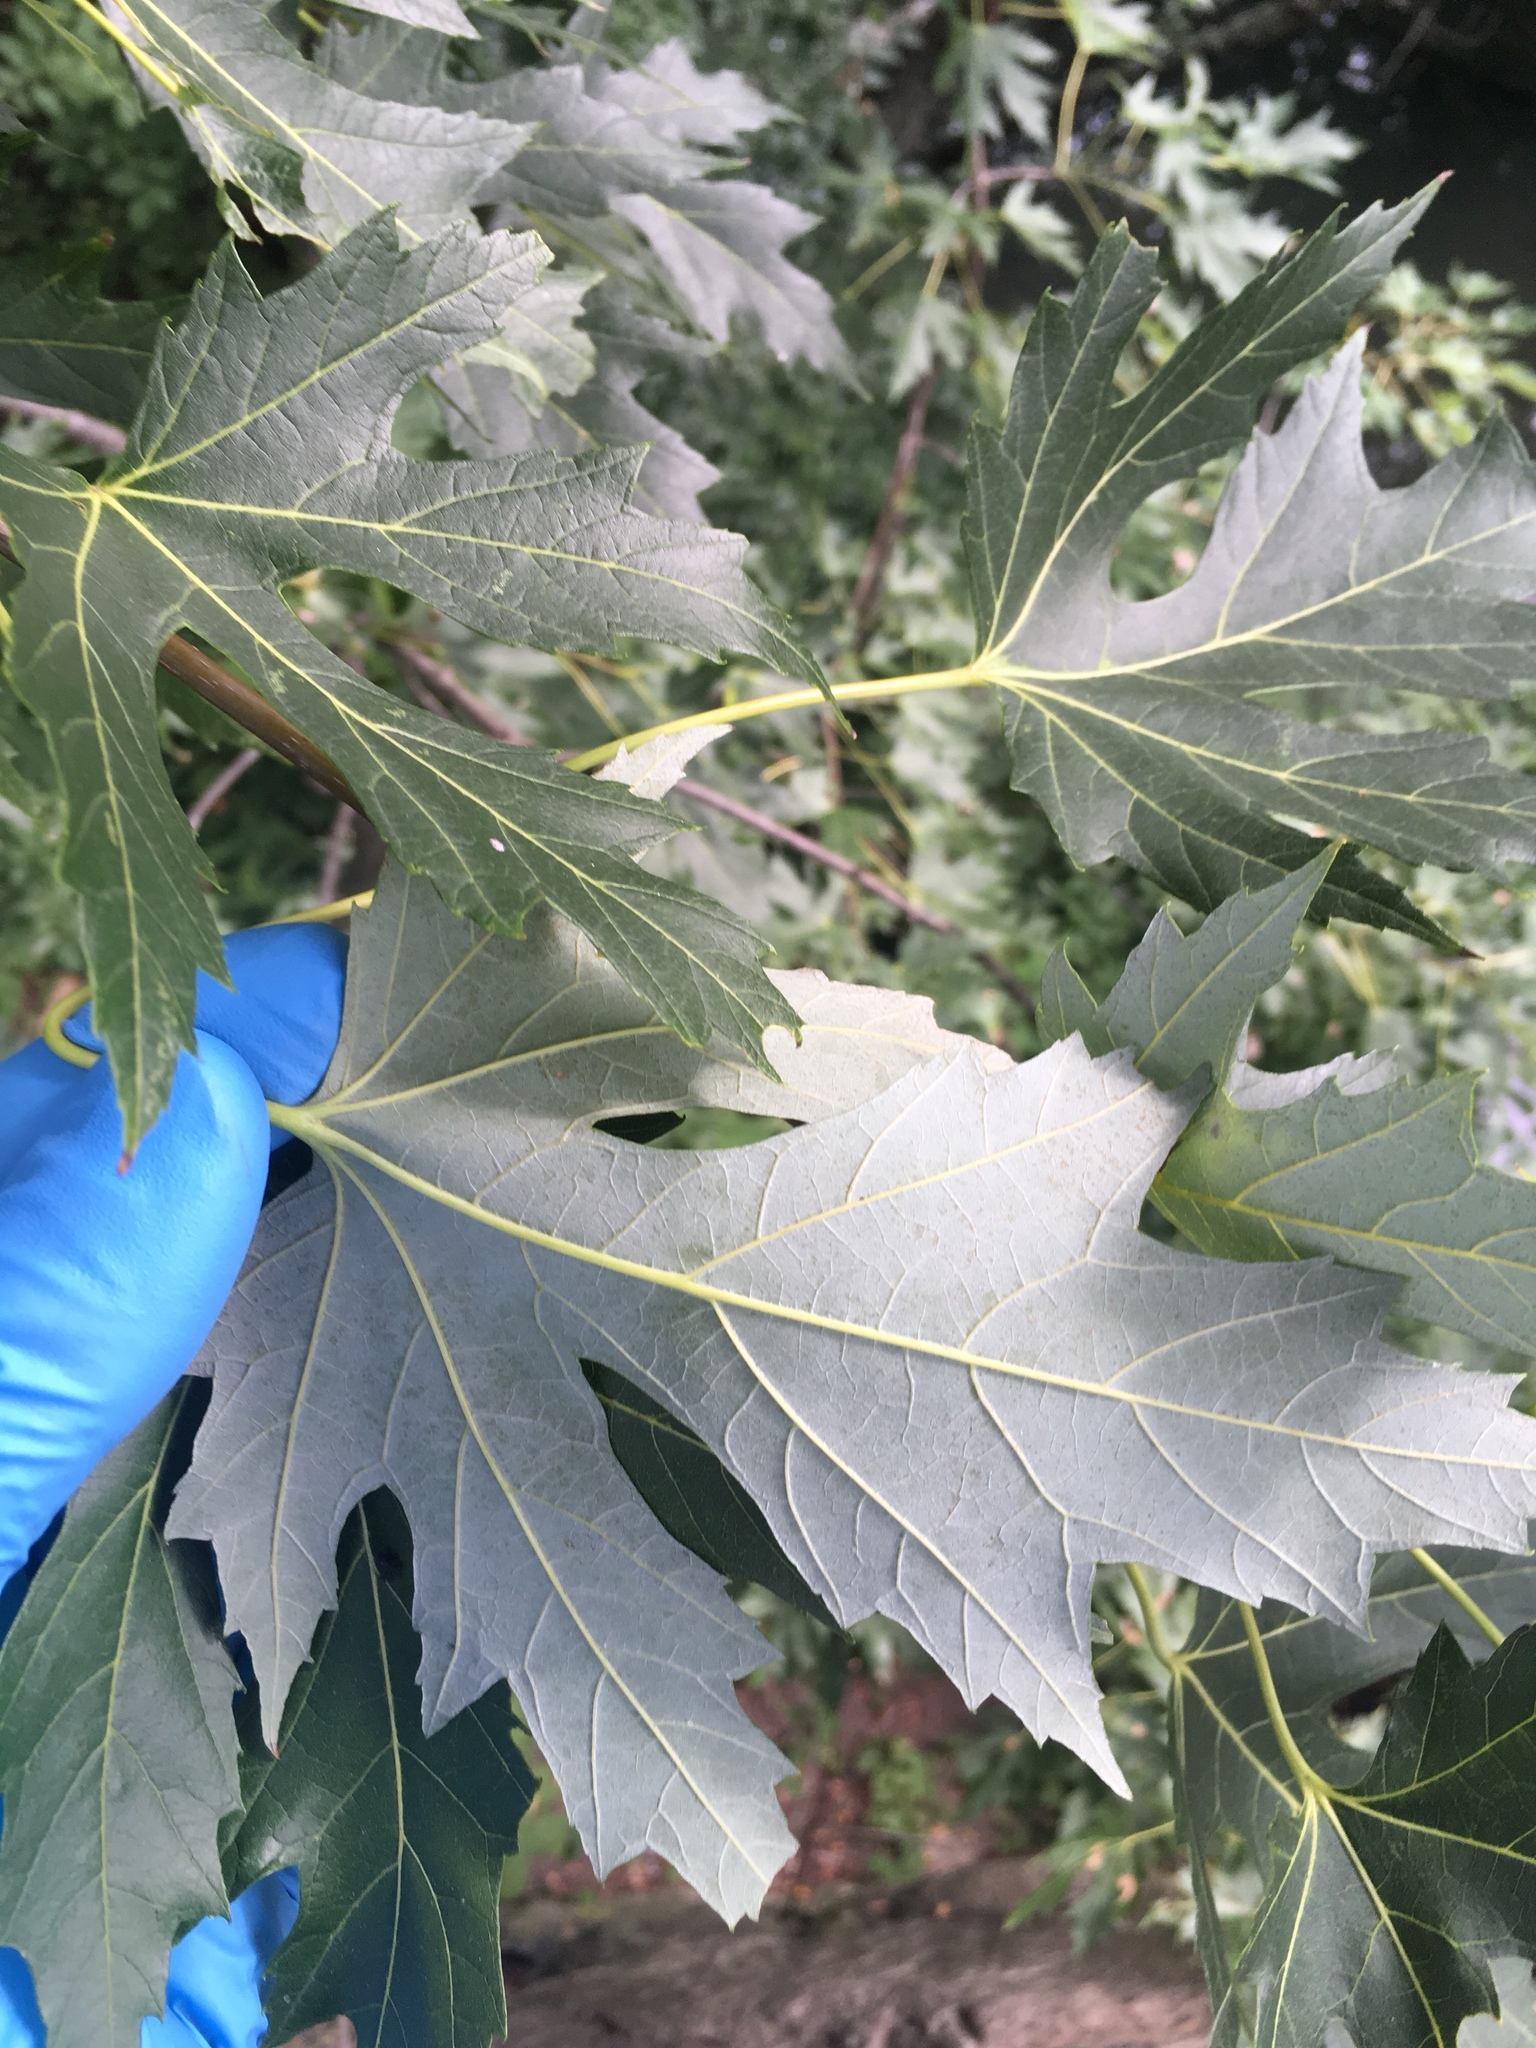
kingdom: Plantae
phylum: Tracheophyta
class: Magnoliopsida
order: Sapindales
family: Sapindaceae
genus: Acer
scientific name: Acer saccharinum
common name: Silver maple
